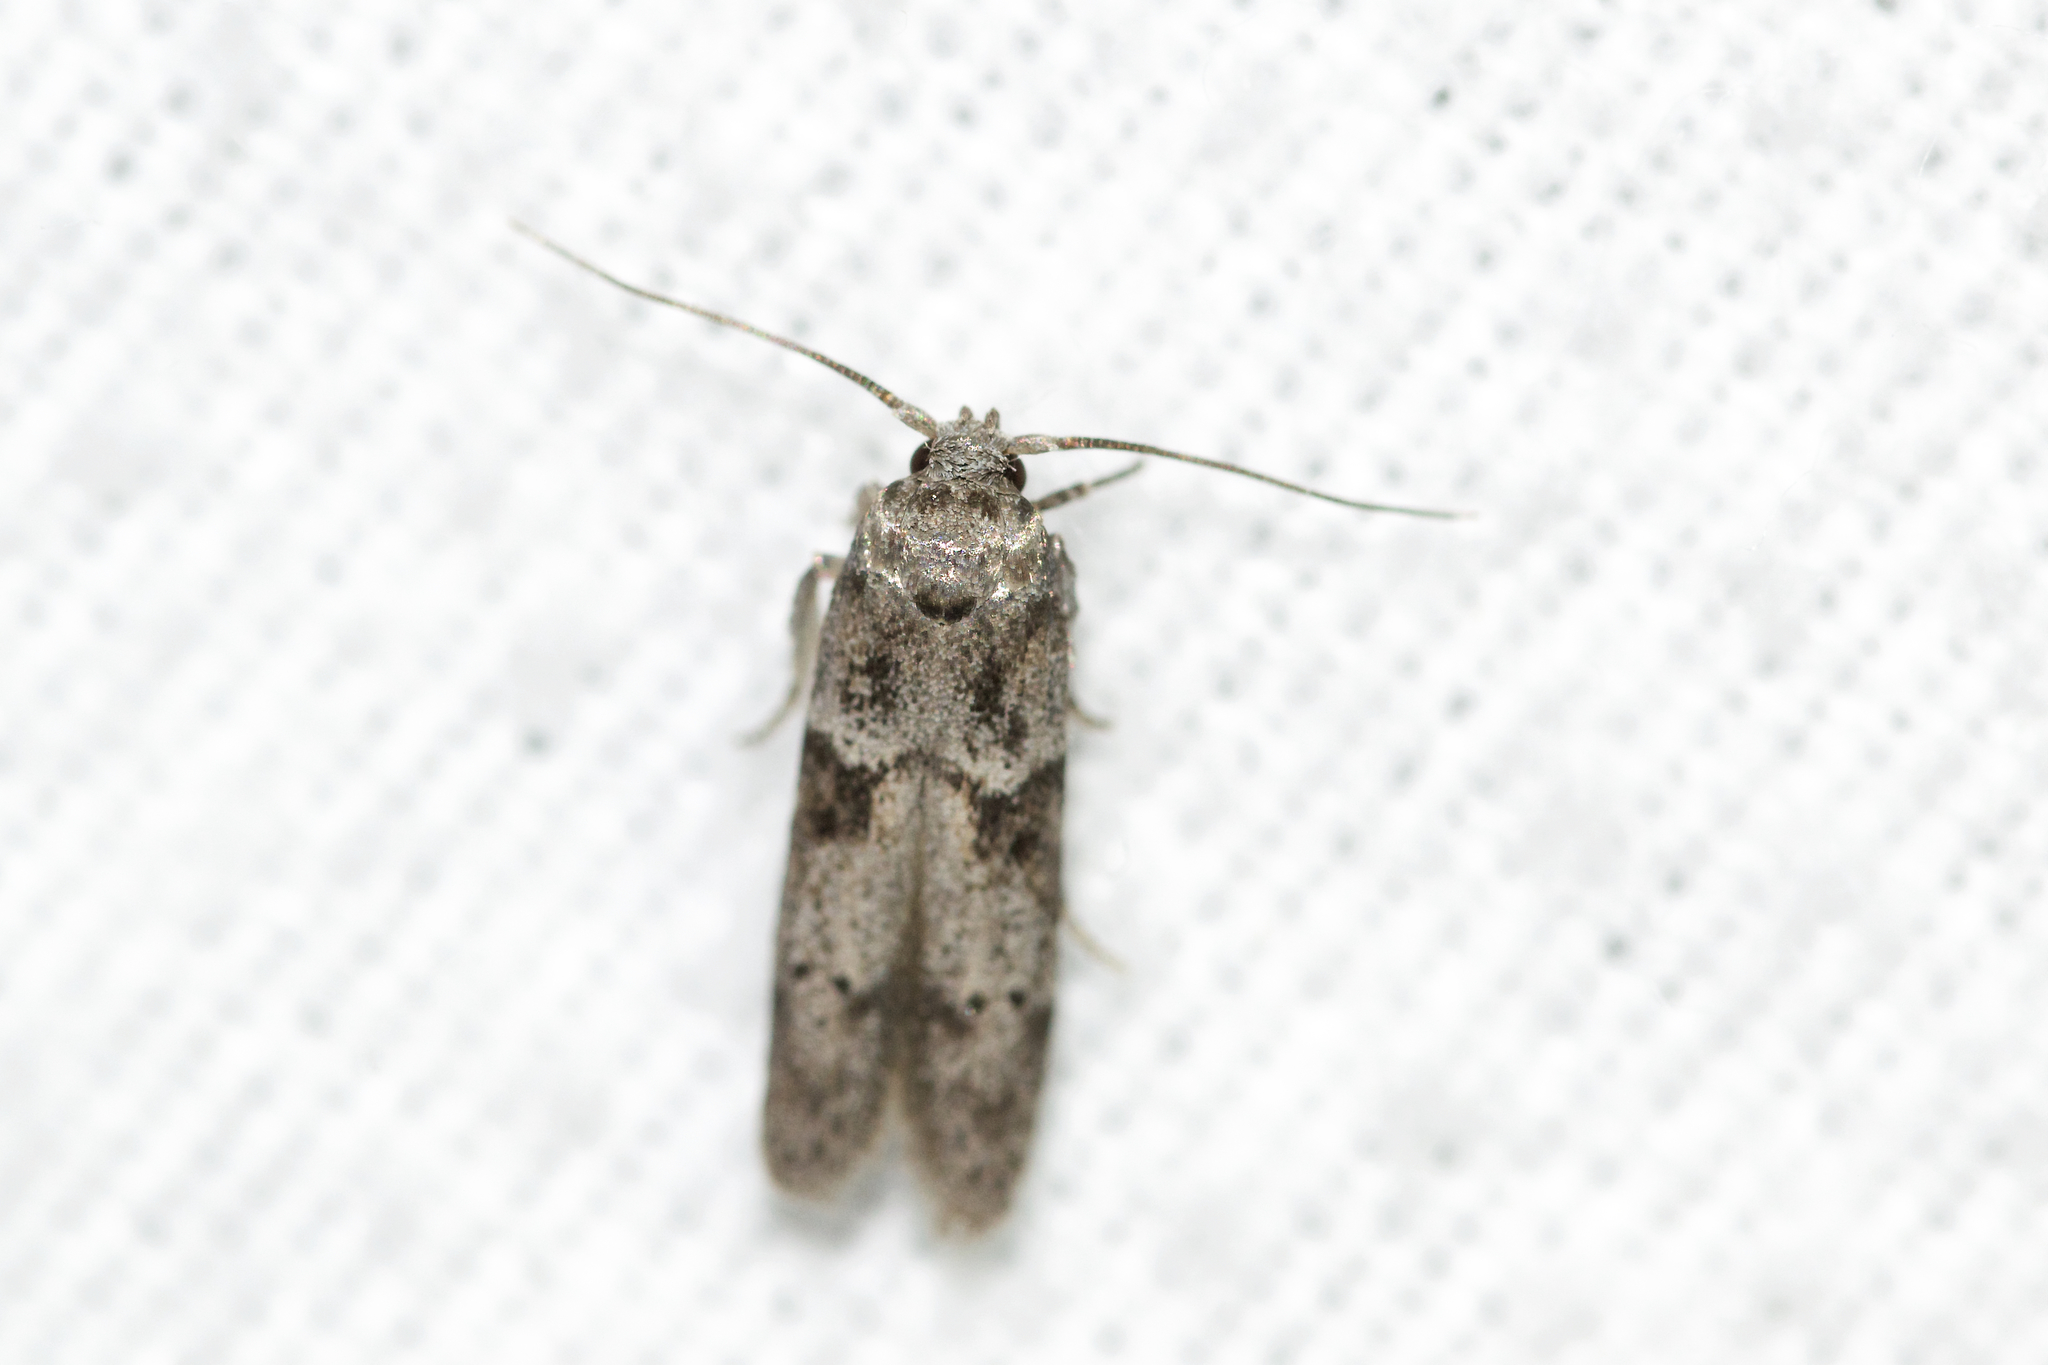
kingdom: Animalia
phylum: Arthropoda
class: Insecta
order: Lepidoptera
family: Blastobasidae
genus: Blastobasis
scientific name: Blastobasis glandulella
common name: Acorn moth
